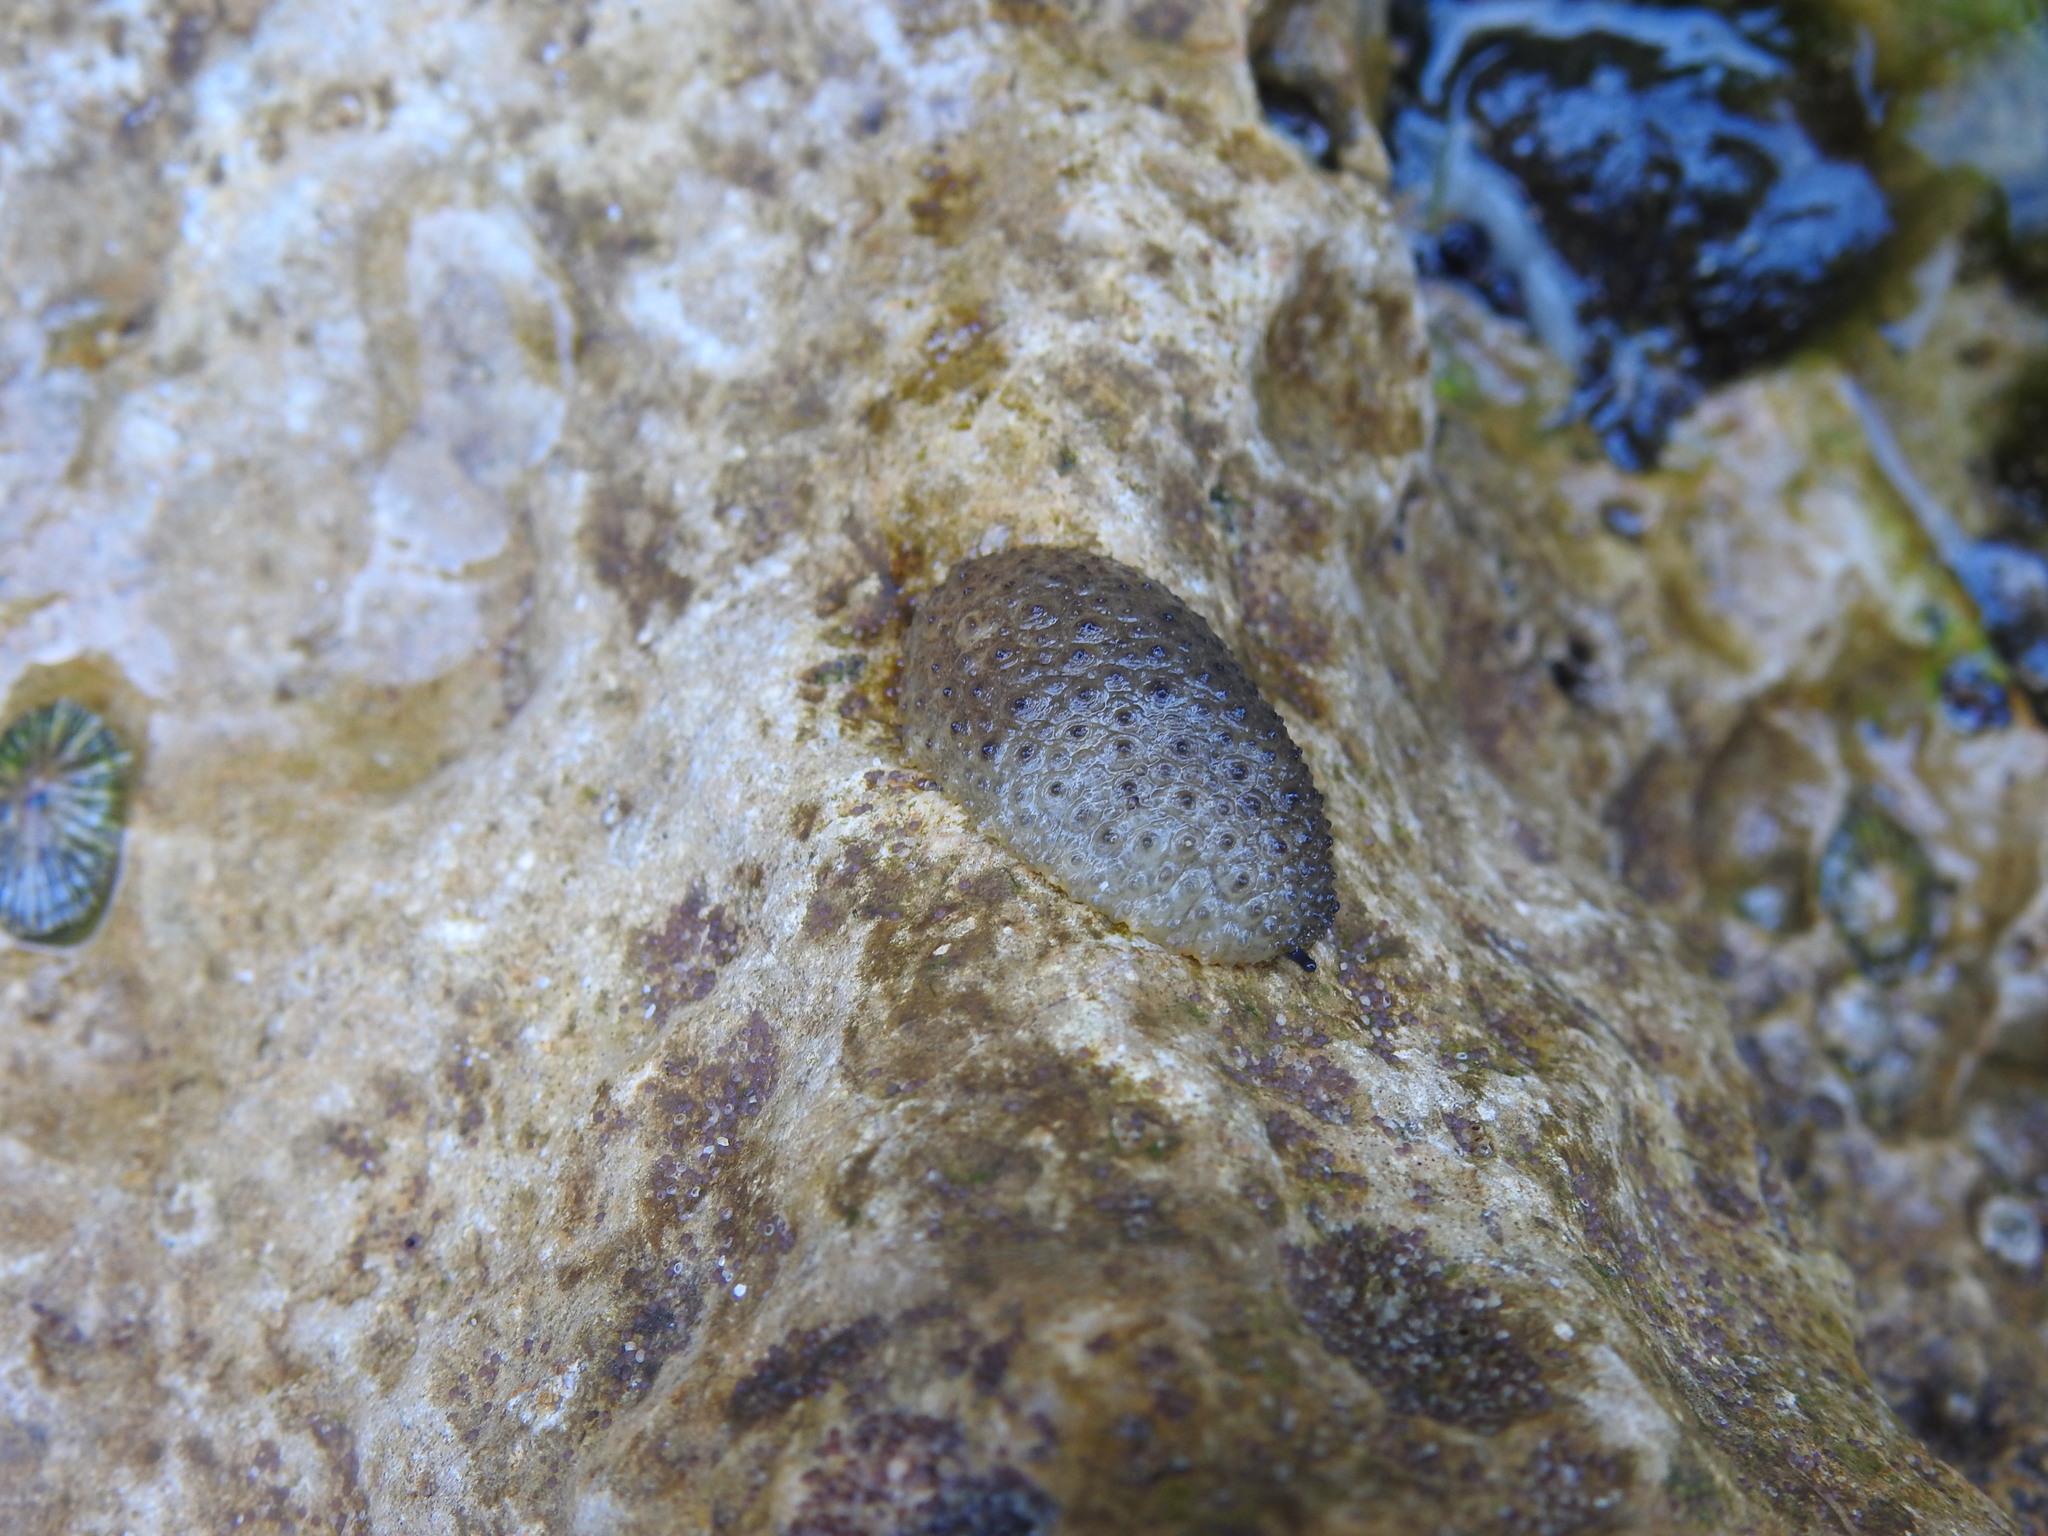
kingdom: Animalia
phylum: Mollusca
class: Gastropoda
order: Systellommatophora
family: Onchidiidae
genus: Onchidella
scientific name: Onchidella celtica
